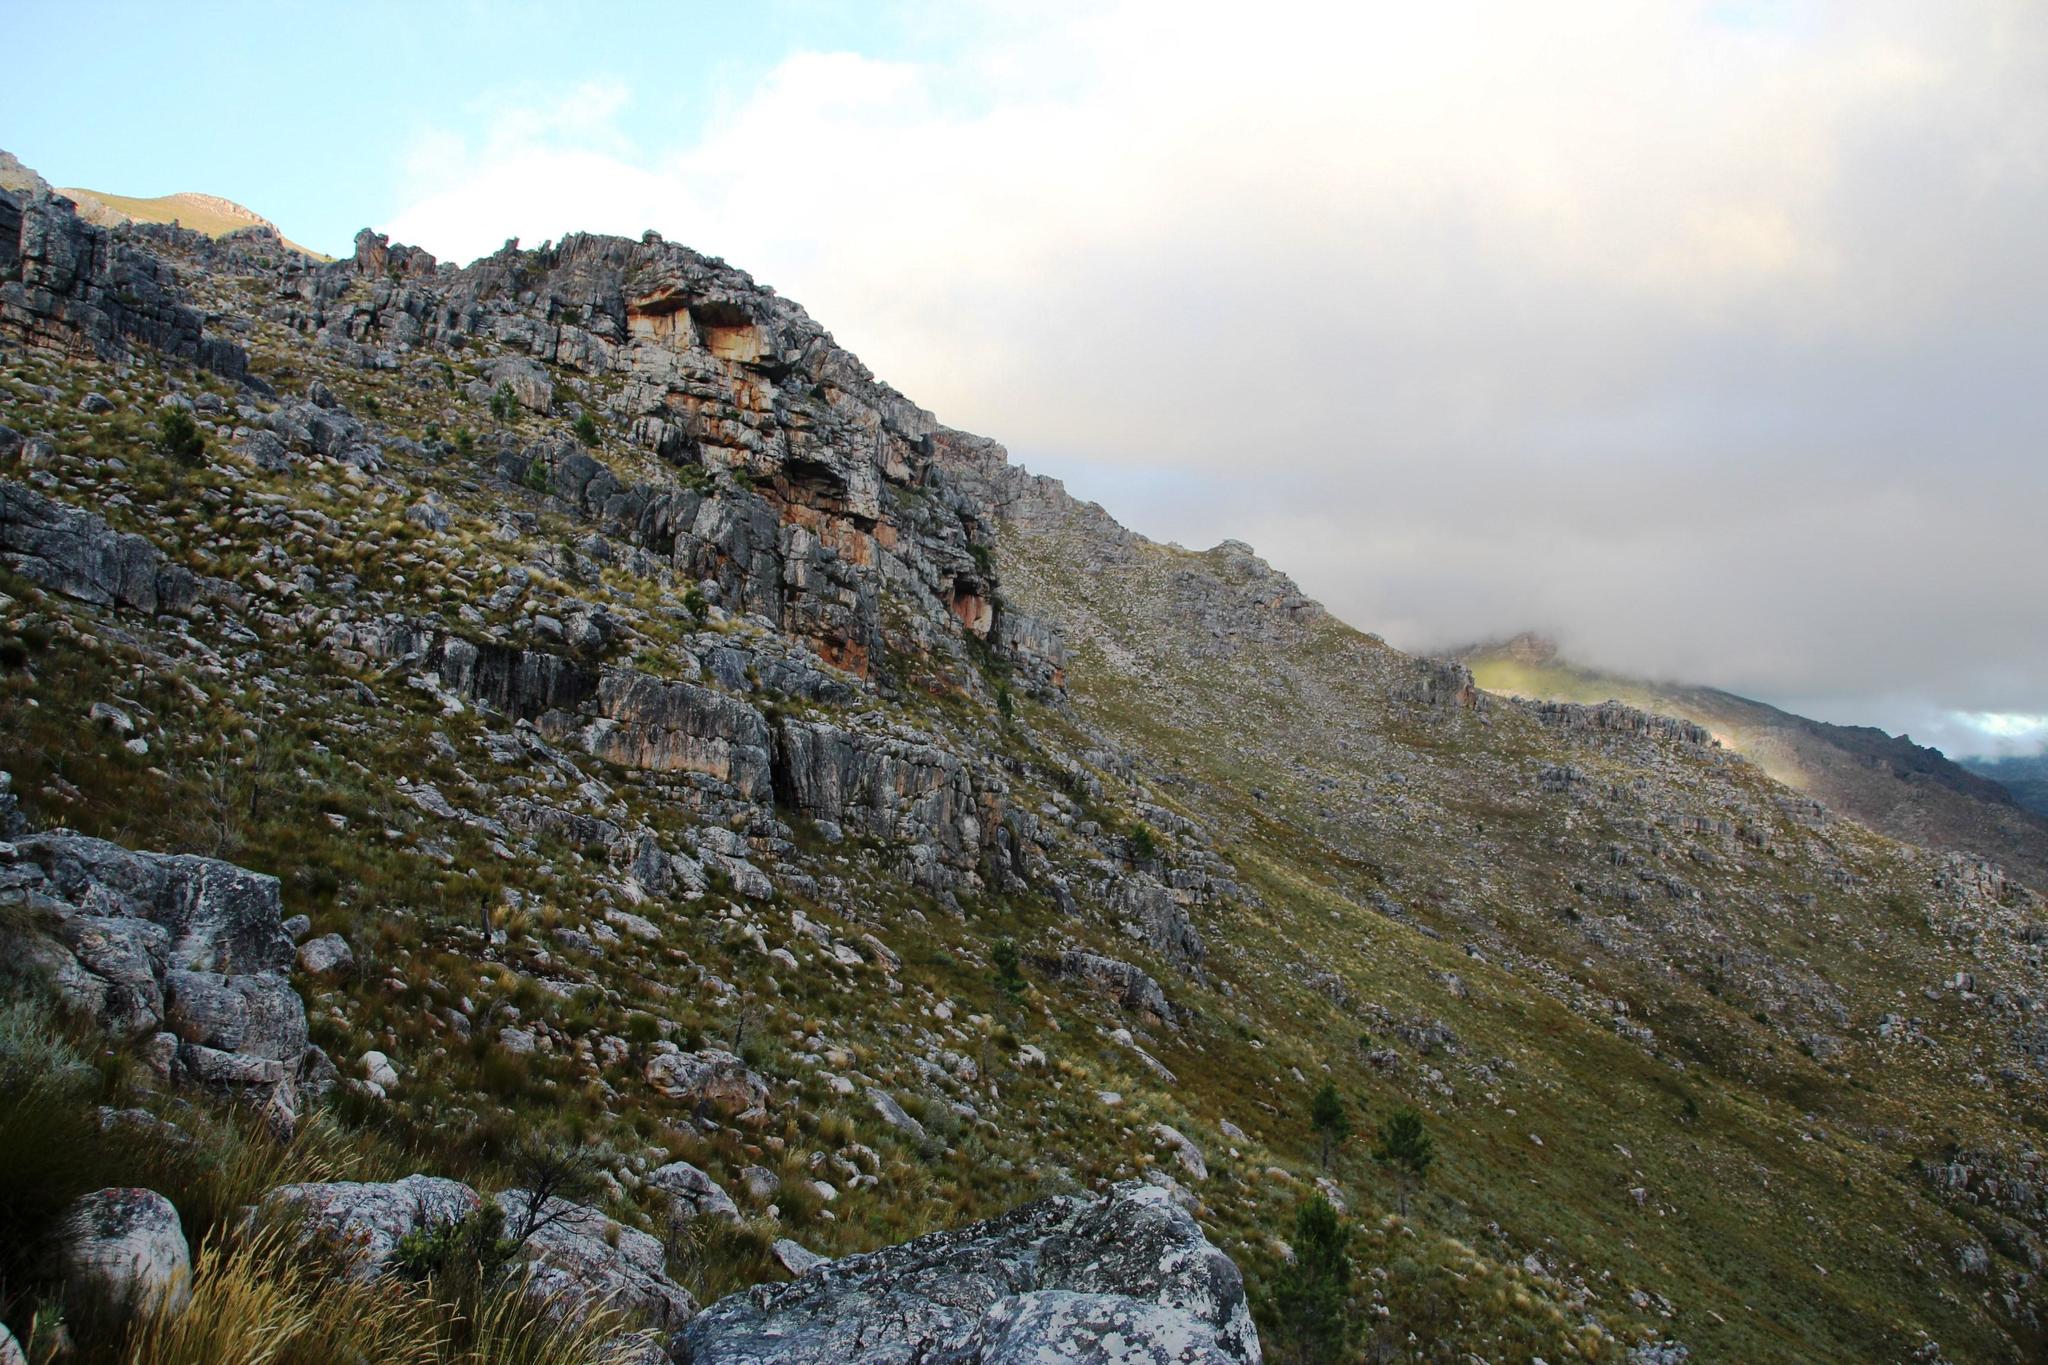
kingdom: Plantae
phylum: Tracheophyta
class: Pinopsida
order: Pinales
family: Pinaceae
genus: Pinus
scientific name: Pinus pinaster
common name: Maritime pine
